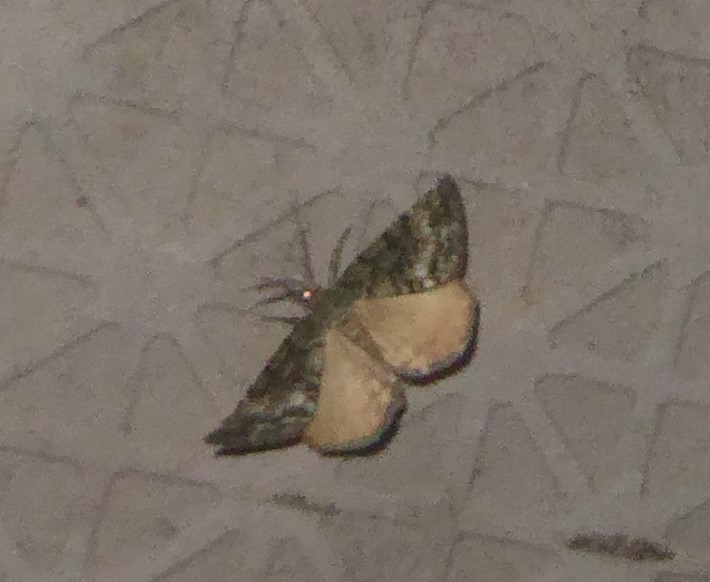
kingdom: Animalia
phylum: Arthropoda
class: Insecta
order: Lepidoptera
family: Geometridae
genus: Pseudocoremia
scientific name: Pseudocoremia indistincta
